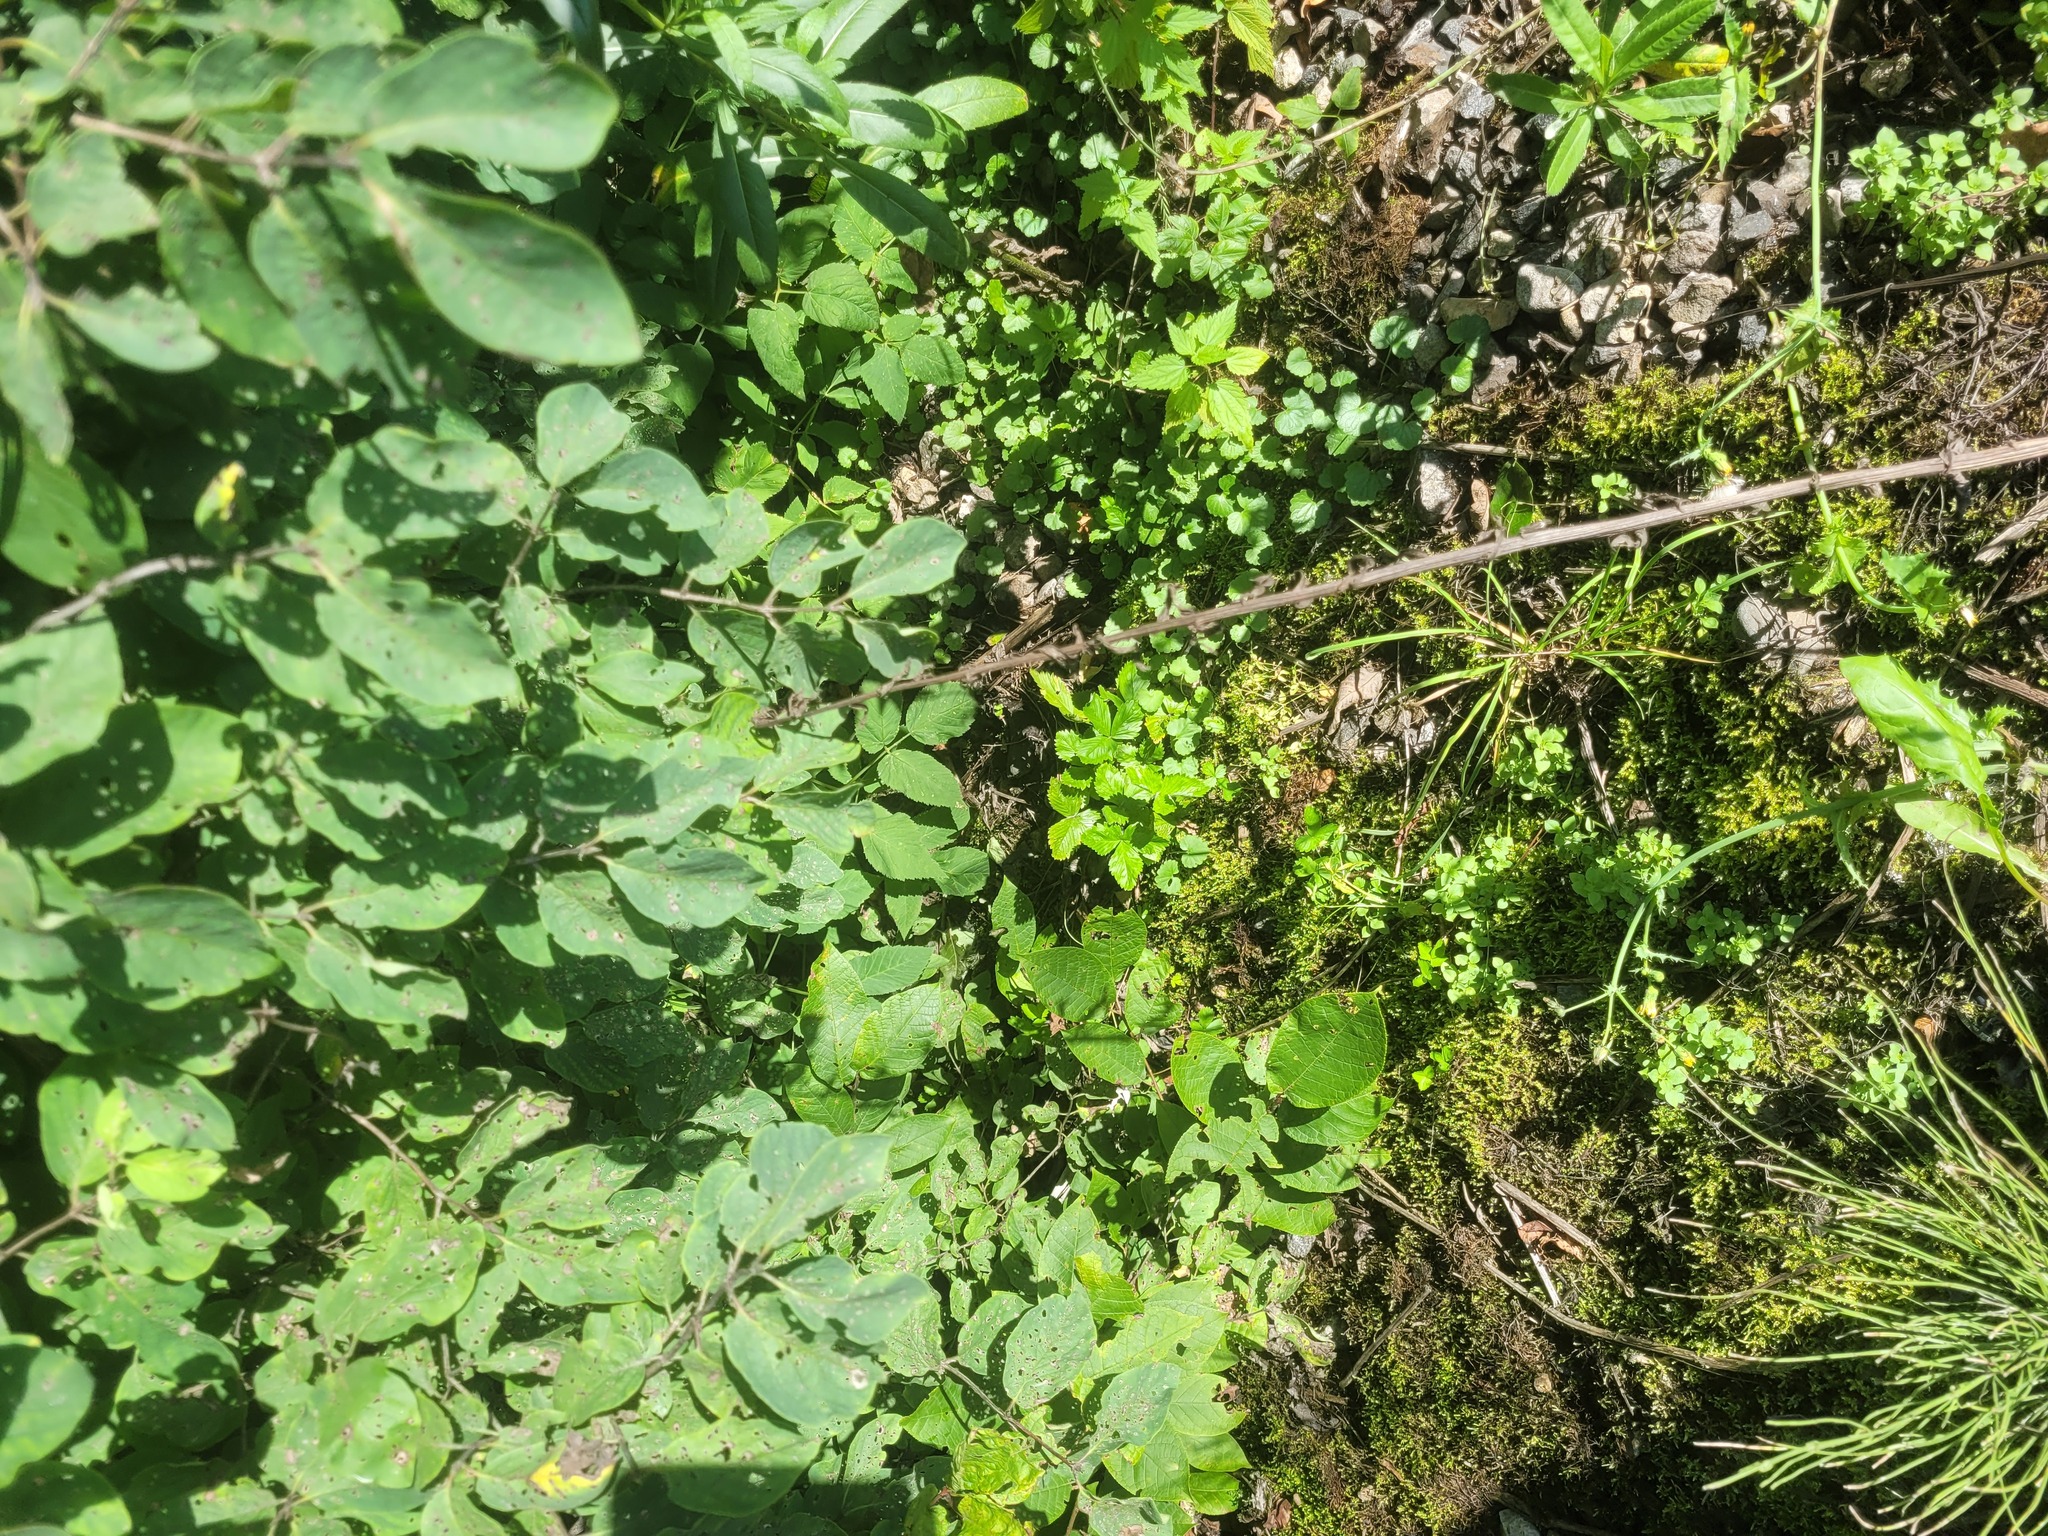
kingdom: Plantae
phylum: Tracheophyta
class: Magnoliopsida
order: Rosales
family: Rosaceae
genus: Fragaria
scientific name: Fragaria vesca
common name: Wild strawberry
